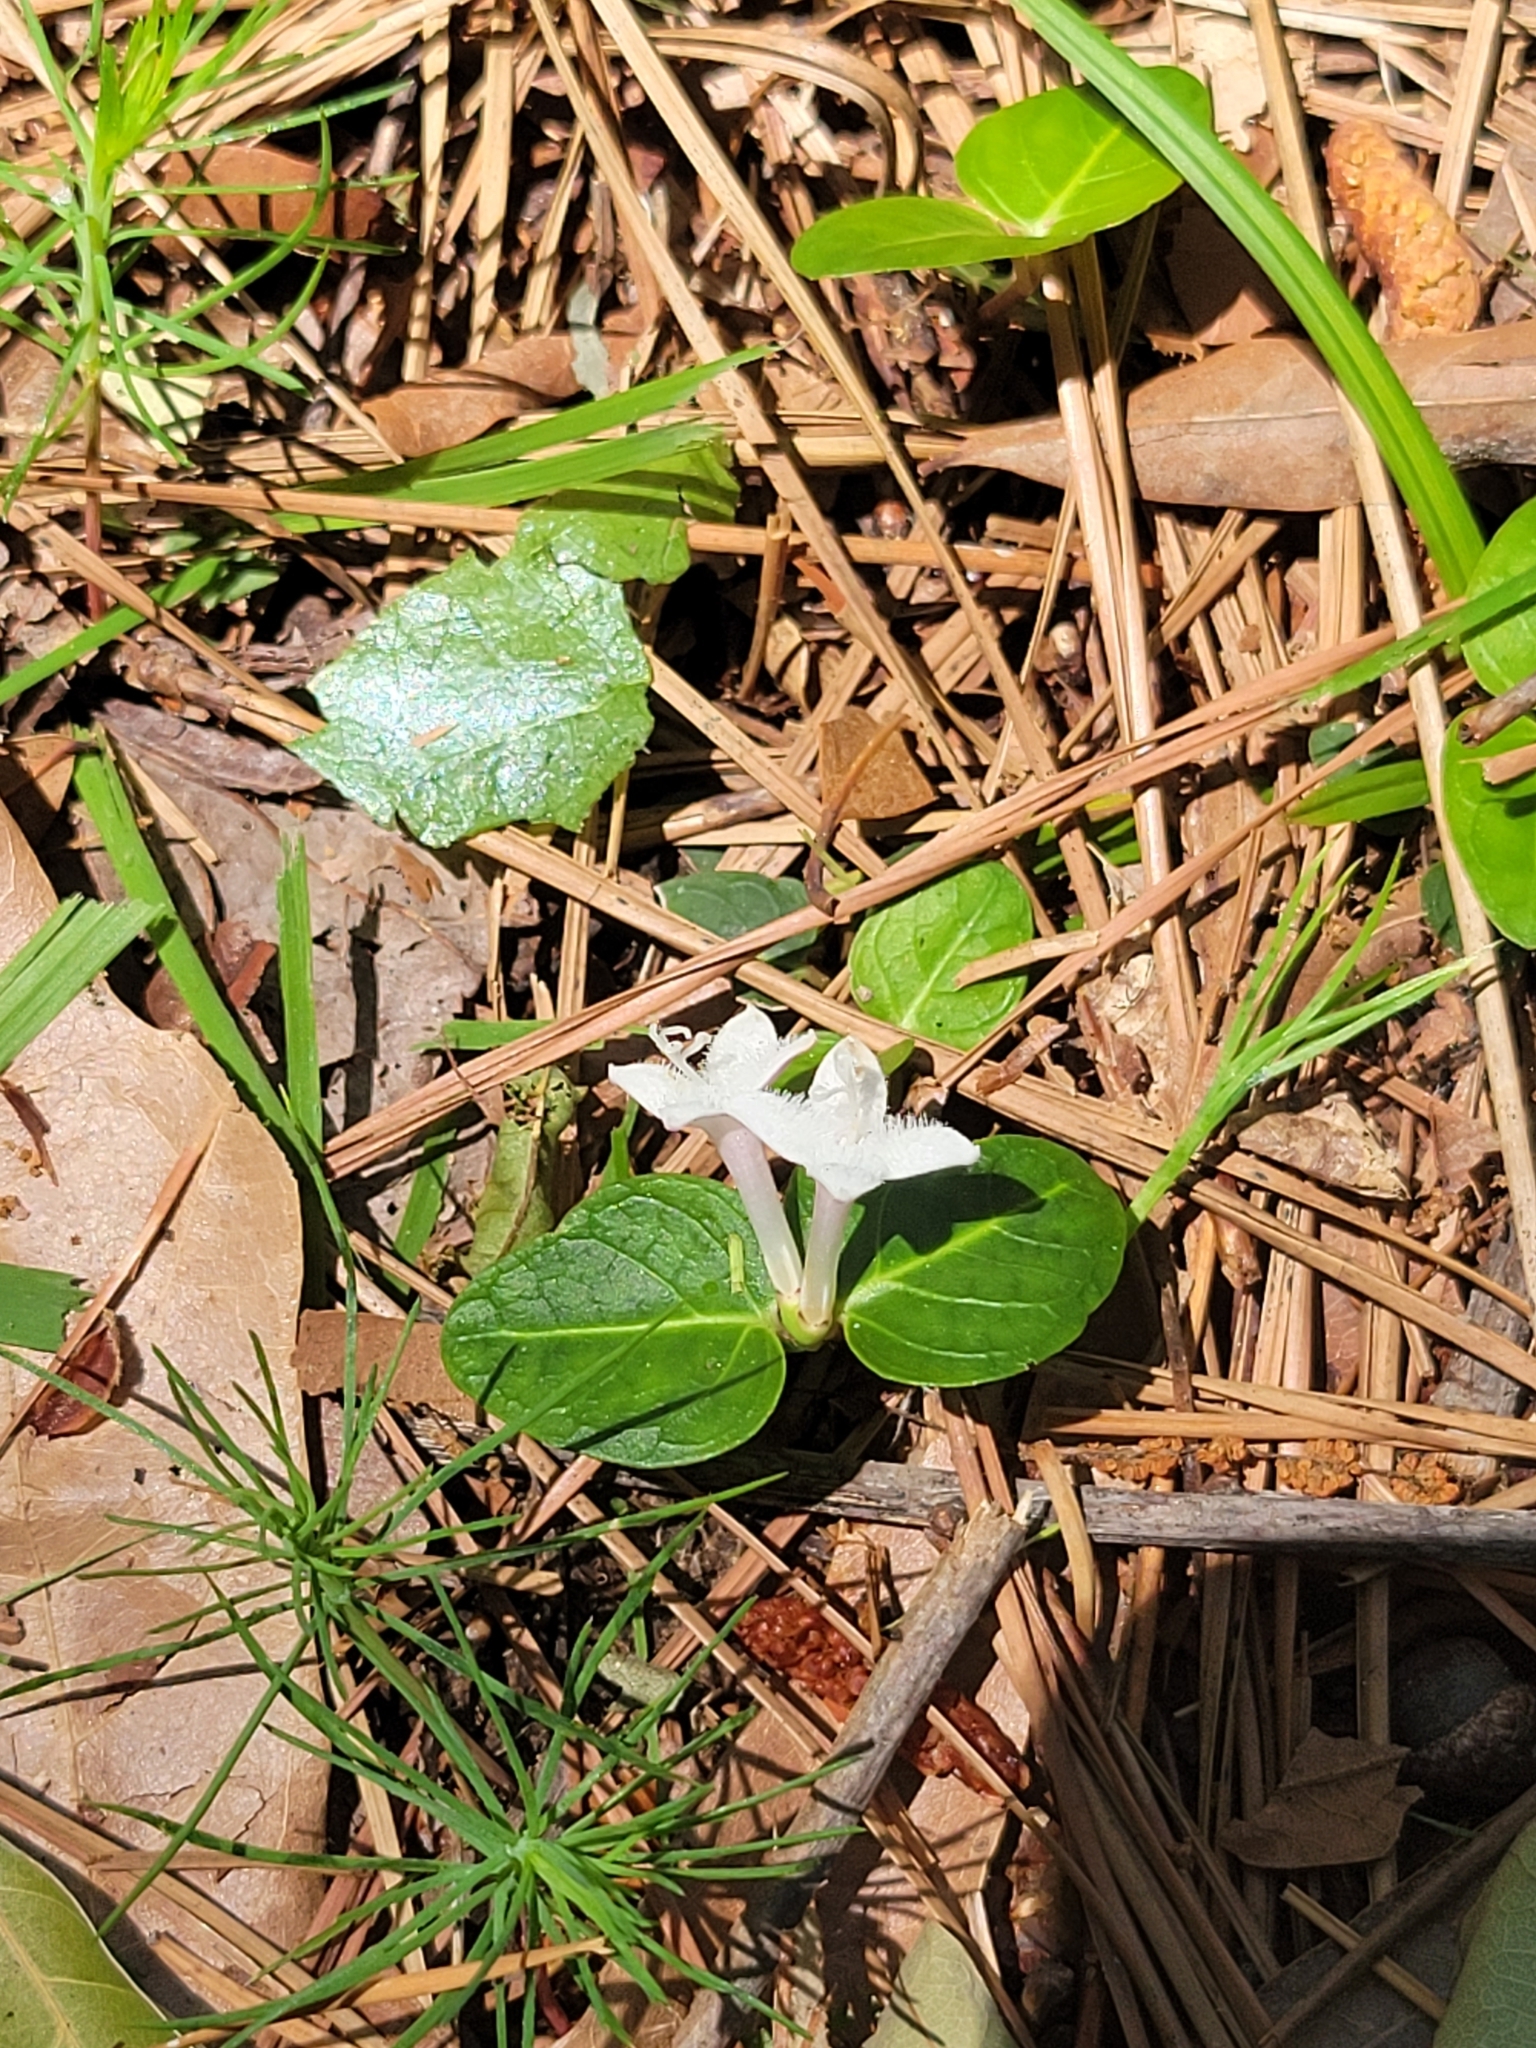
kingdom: Plantae
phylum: Tracheophyta
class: Magnoliopsida
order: Gentianales
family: Rubiaceae
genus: Mitchella
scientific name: Mitchella repens
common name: Partridge-berry
